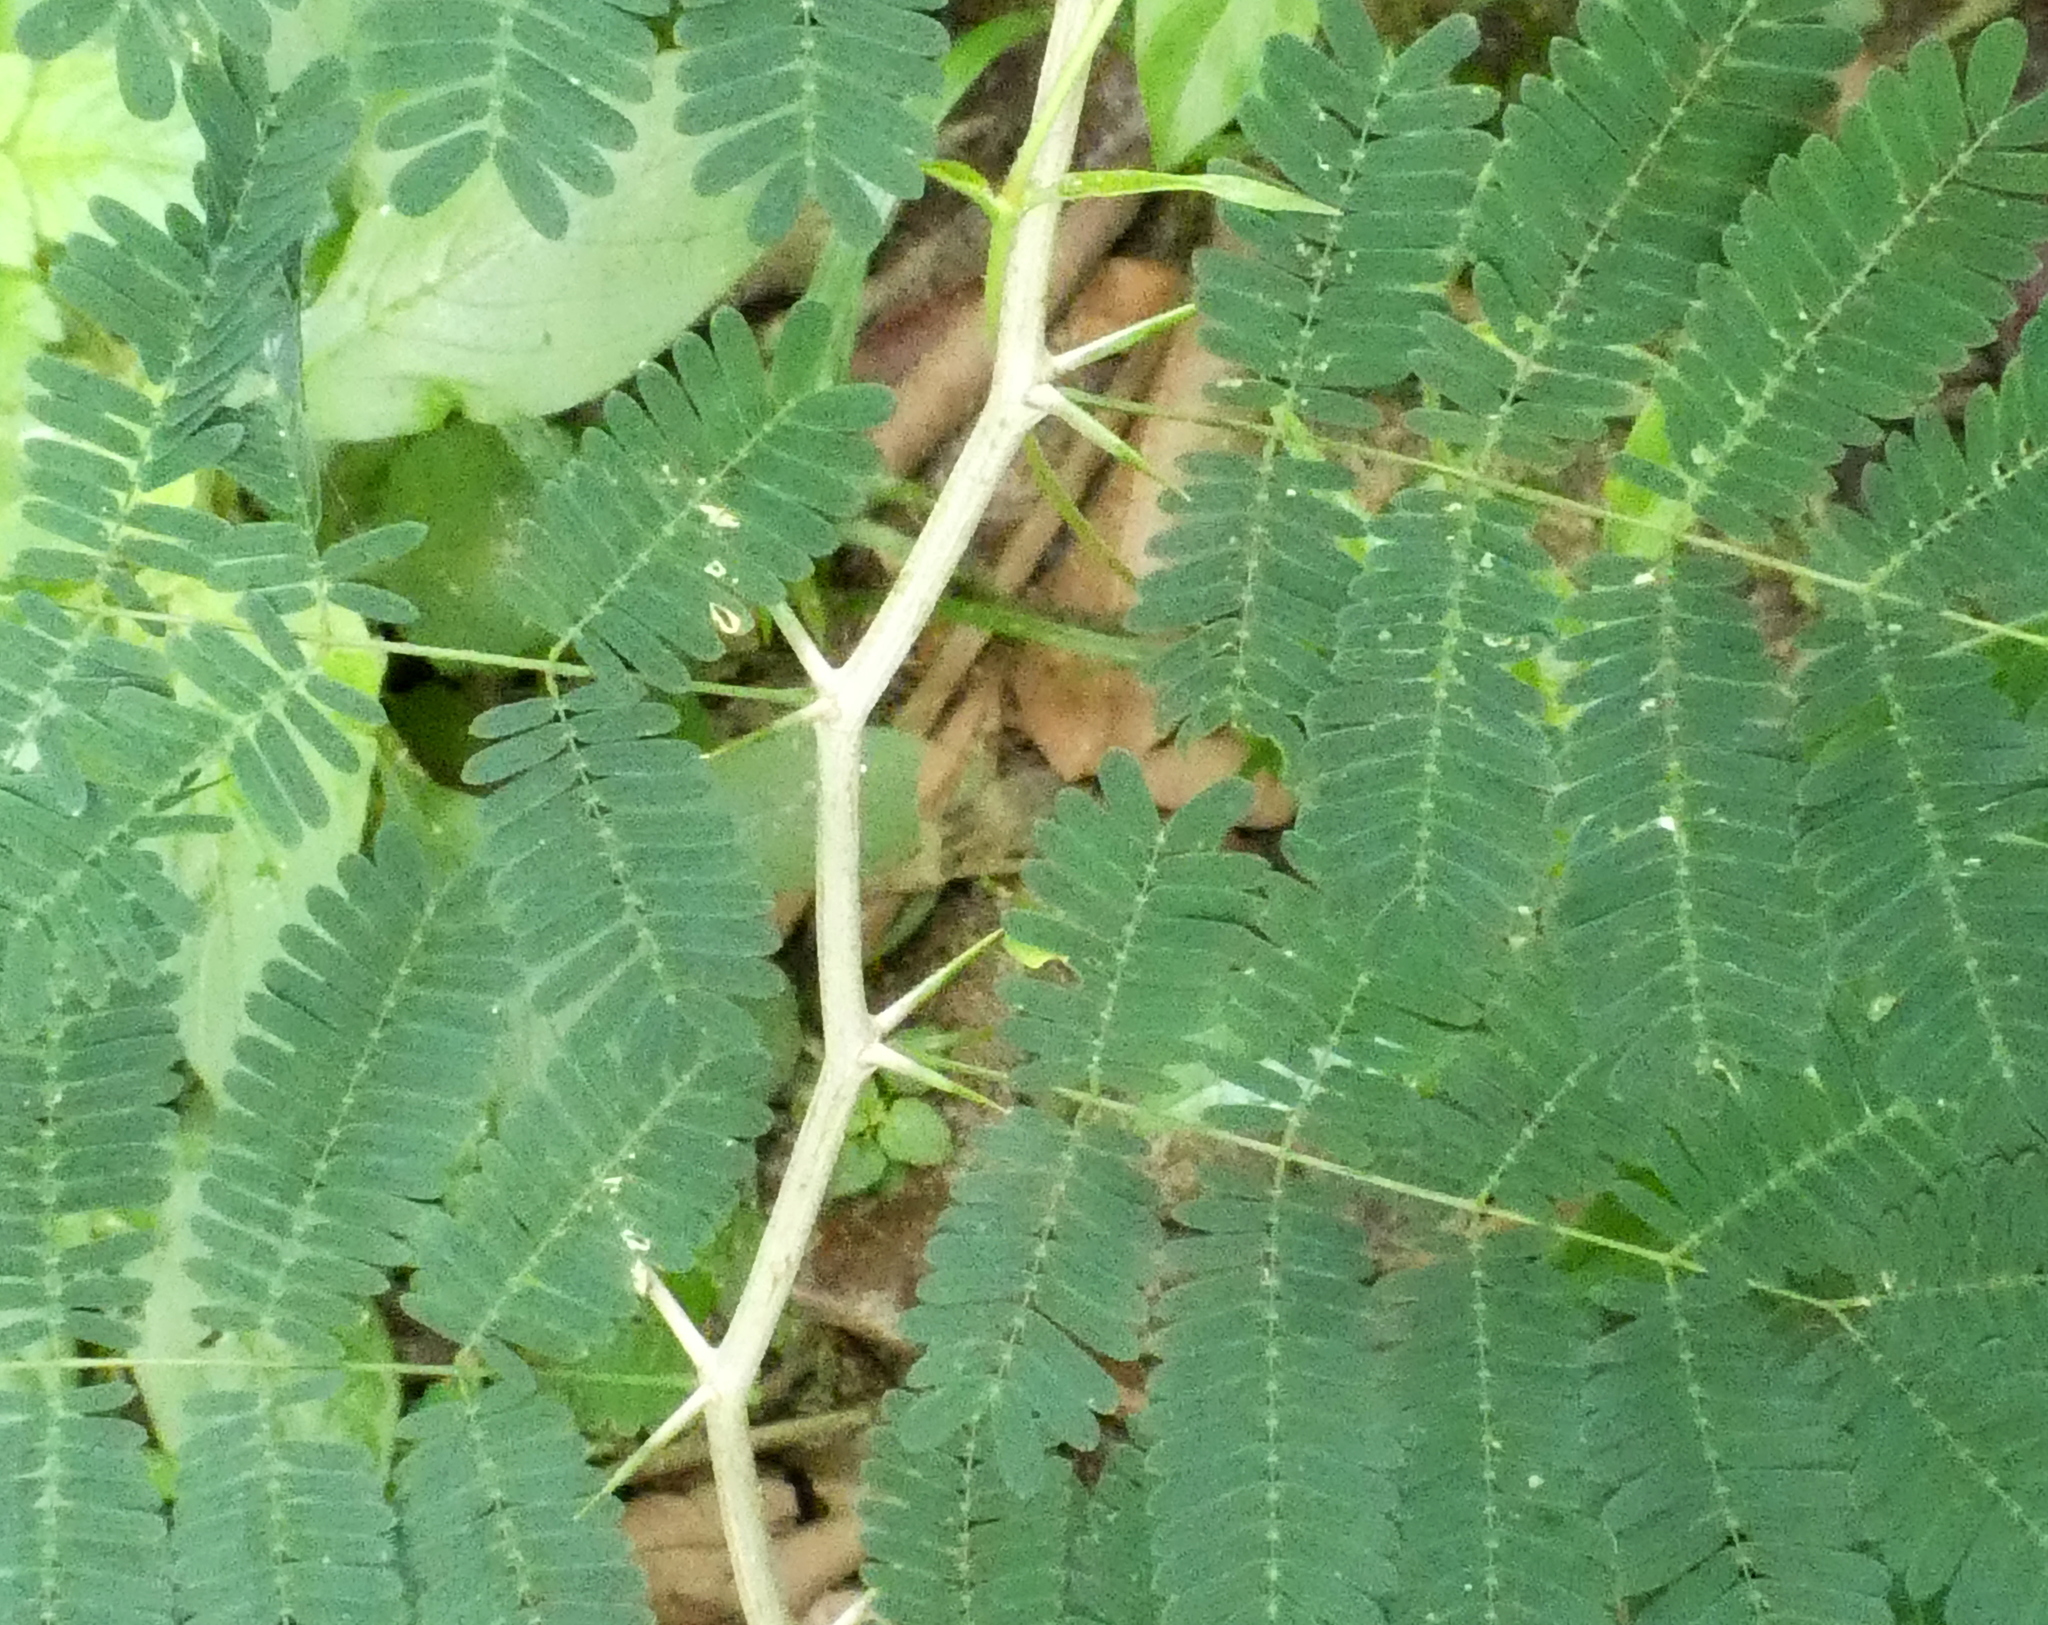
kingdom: Plantae
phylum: Tracheophyta
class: Magnoliopsida
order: Fabales
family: Fabaceae
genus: Chloroleucon
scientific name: Chloroleucon
